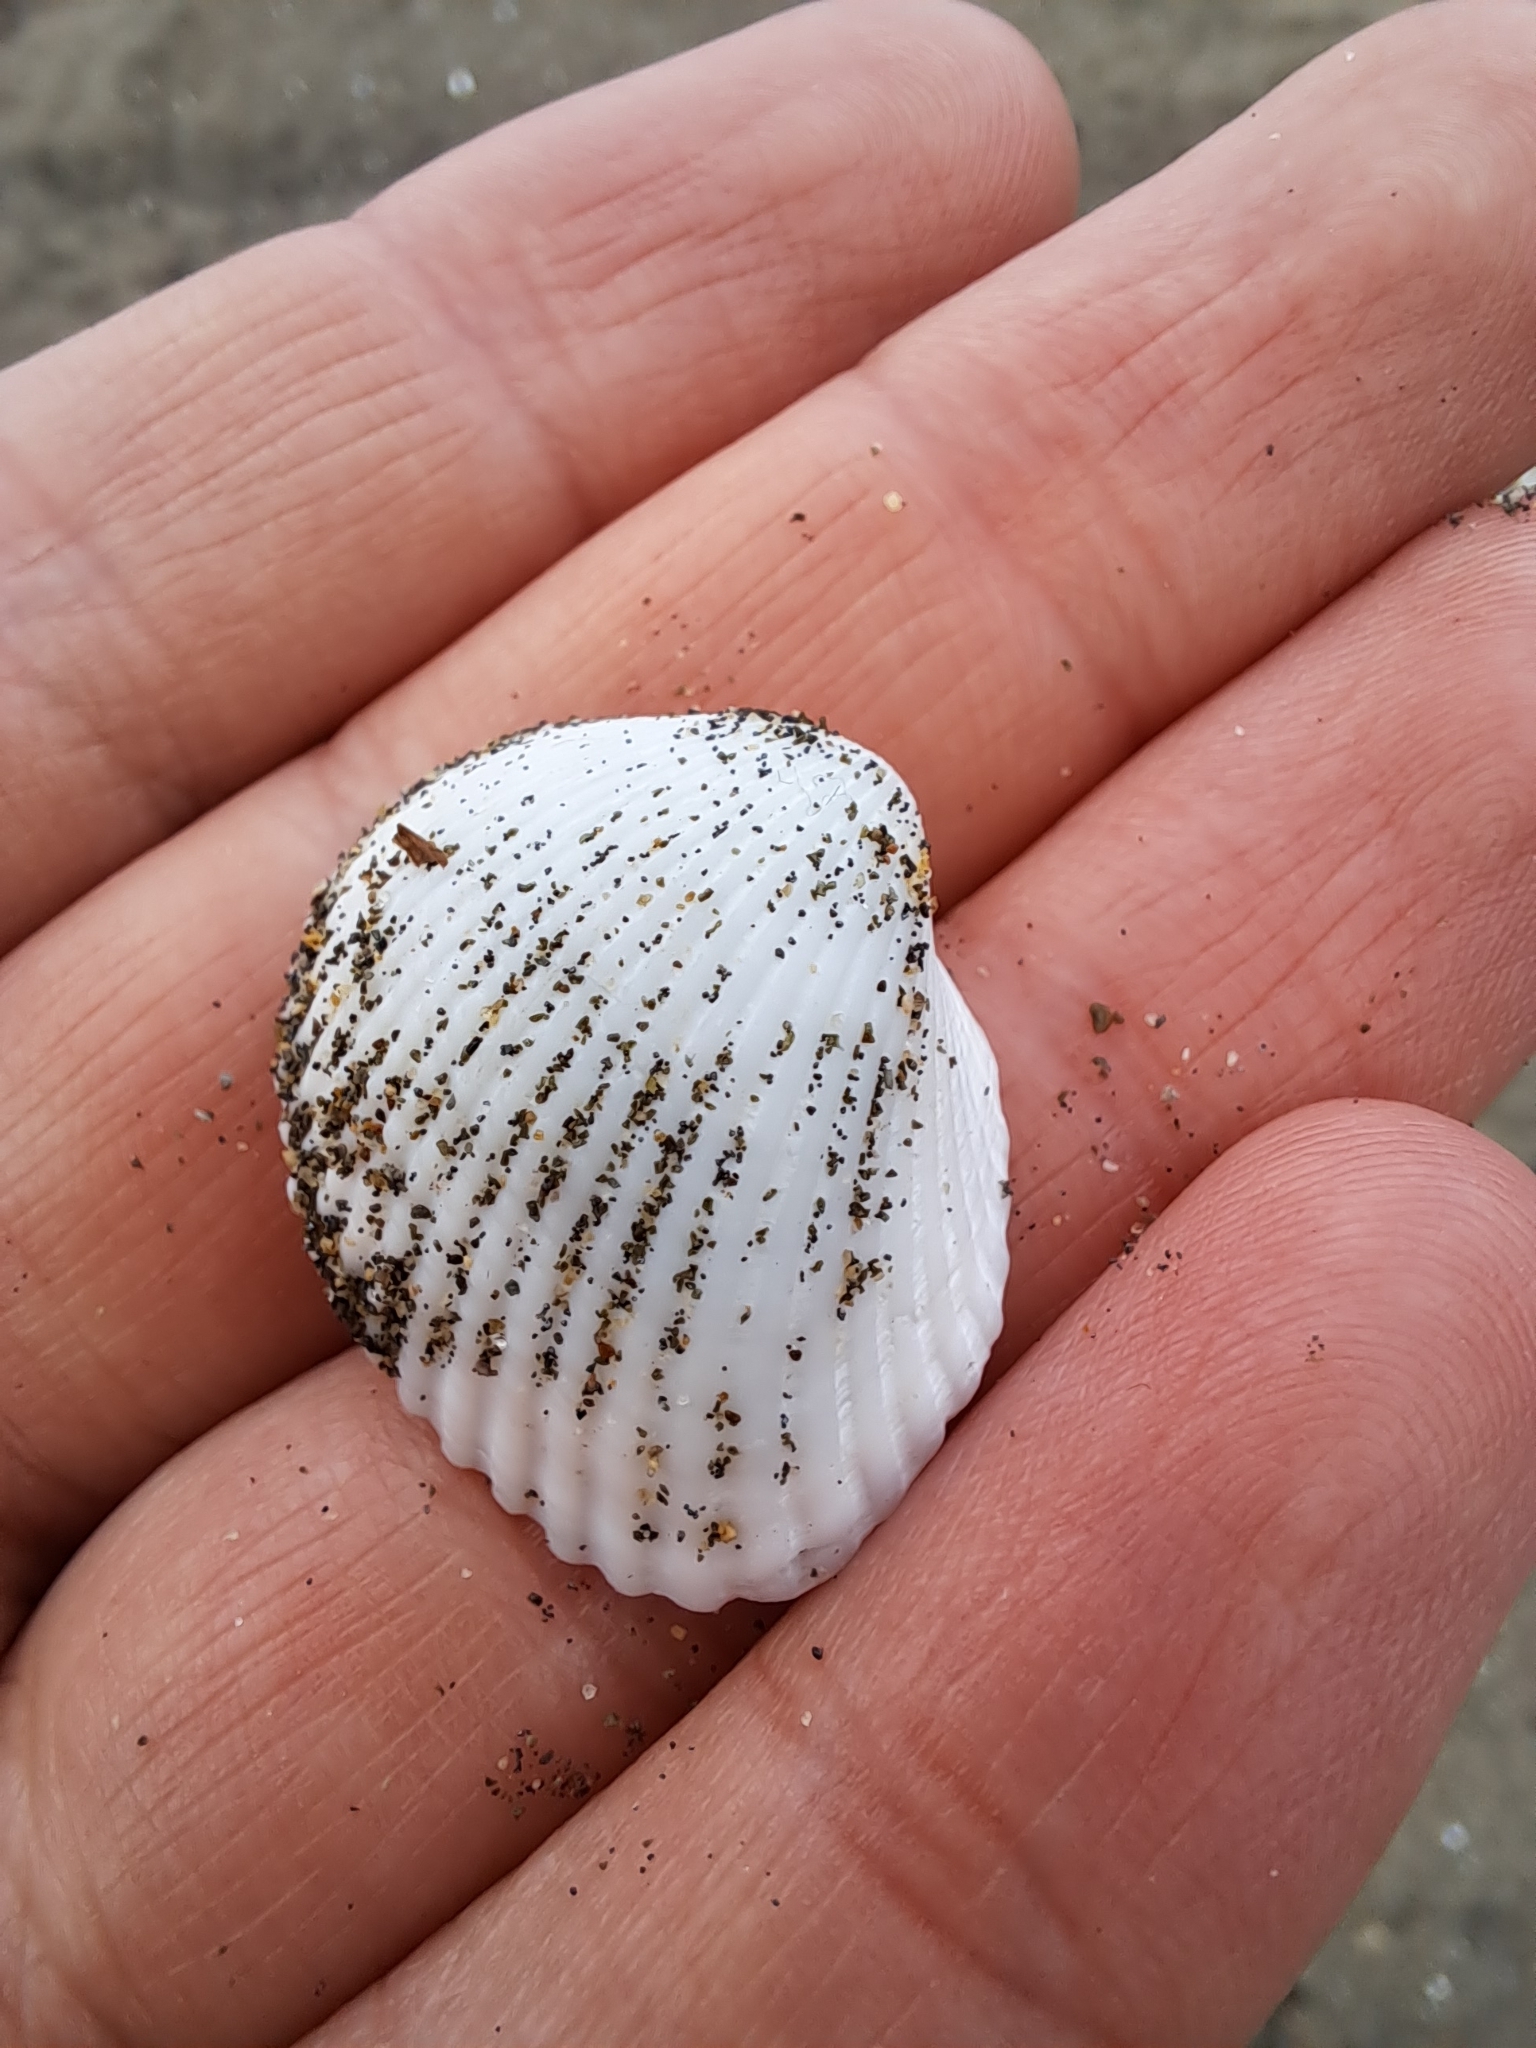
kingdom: Animalia
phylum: Mollusca
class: Bivalvia
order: Arcida
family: Arcidae
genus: Anadara
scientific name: Anadara kagoshimensis
